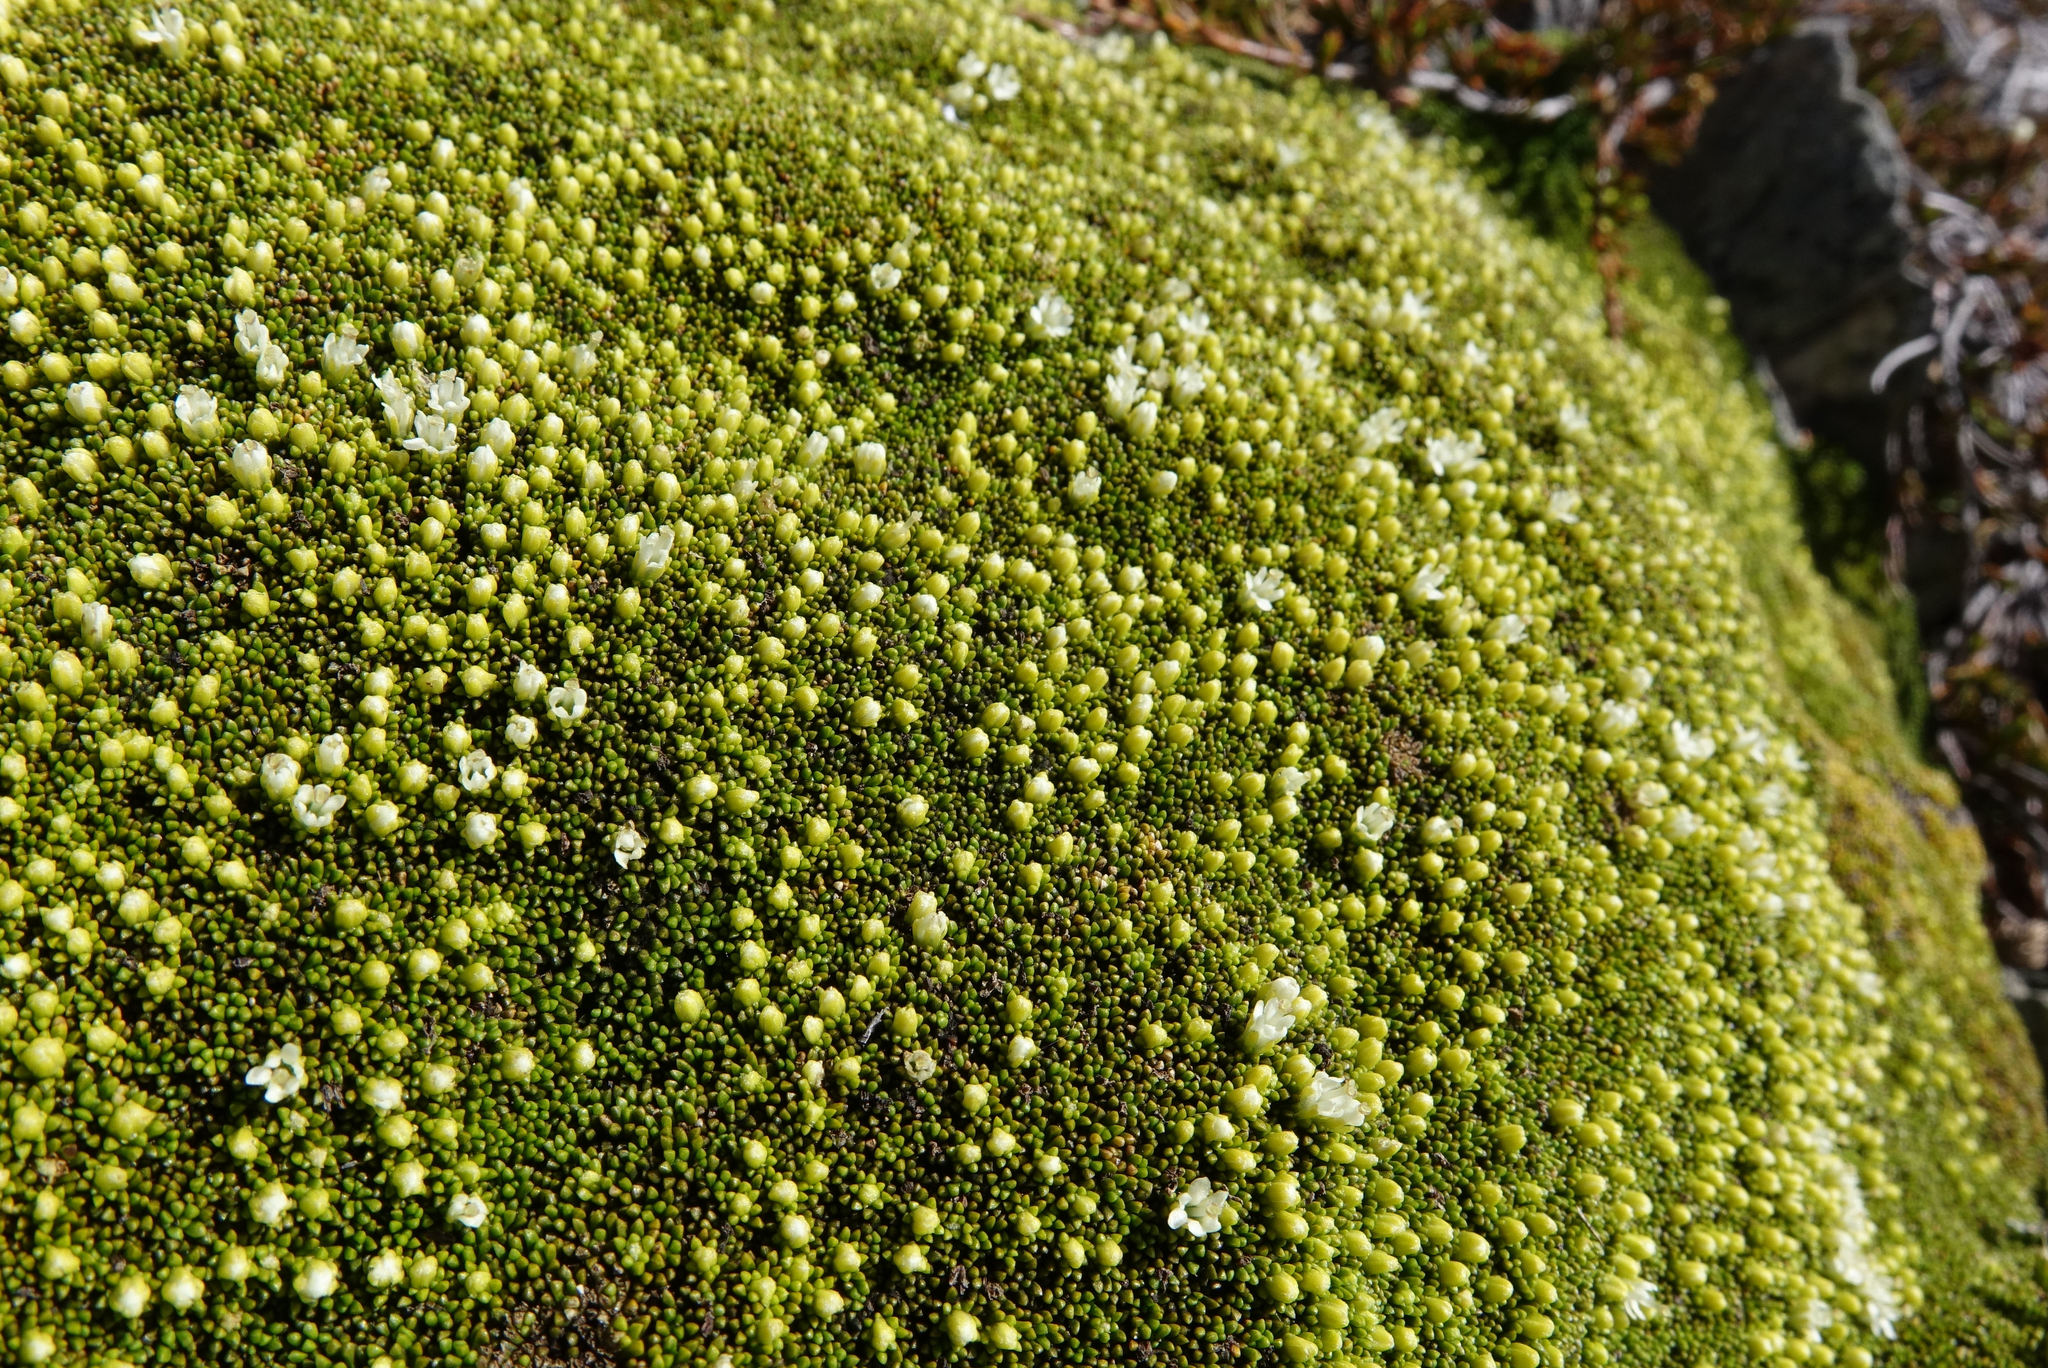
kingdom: Plantae
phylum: Tracheophyta
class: Magnoliopsida
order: Asterales
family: Stylidiaceae
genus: Phyllachne
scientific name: Phyllachne colensoi
